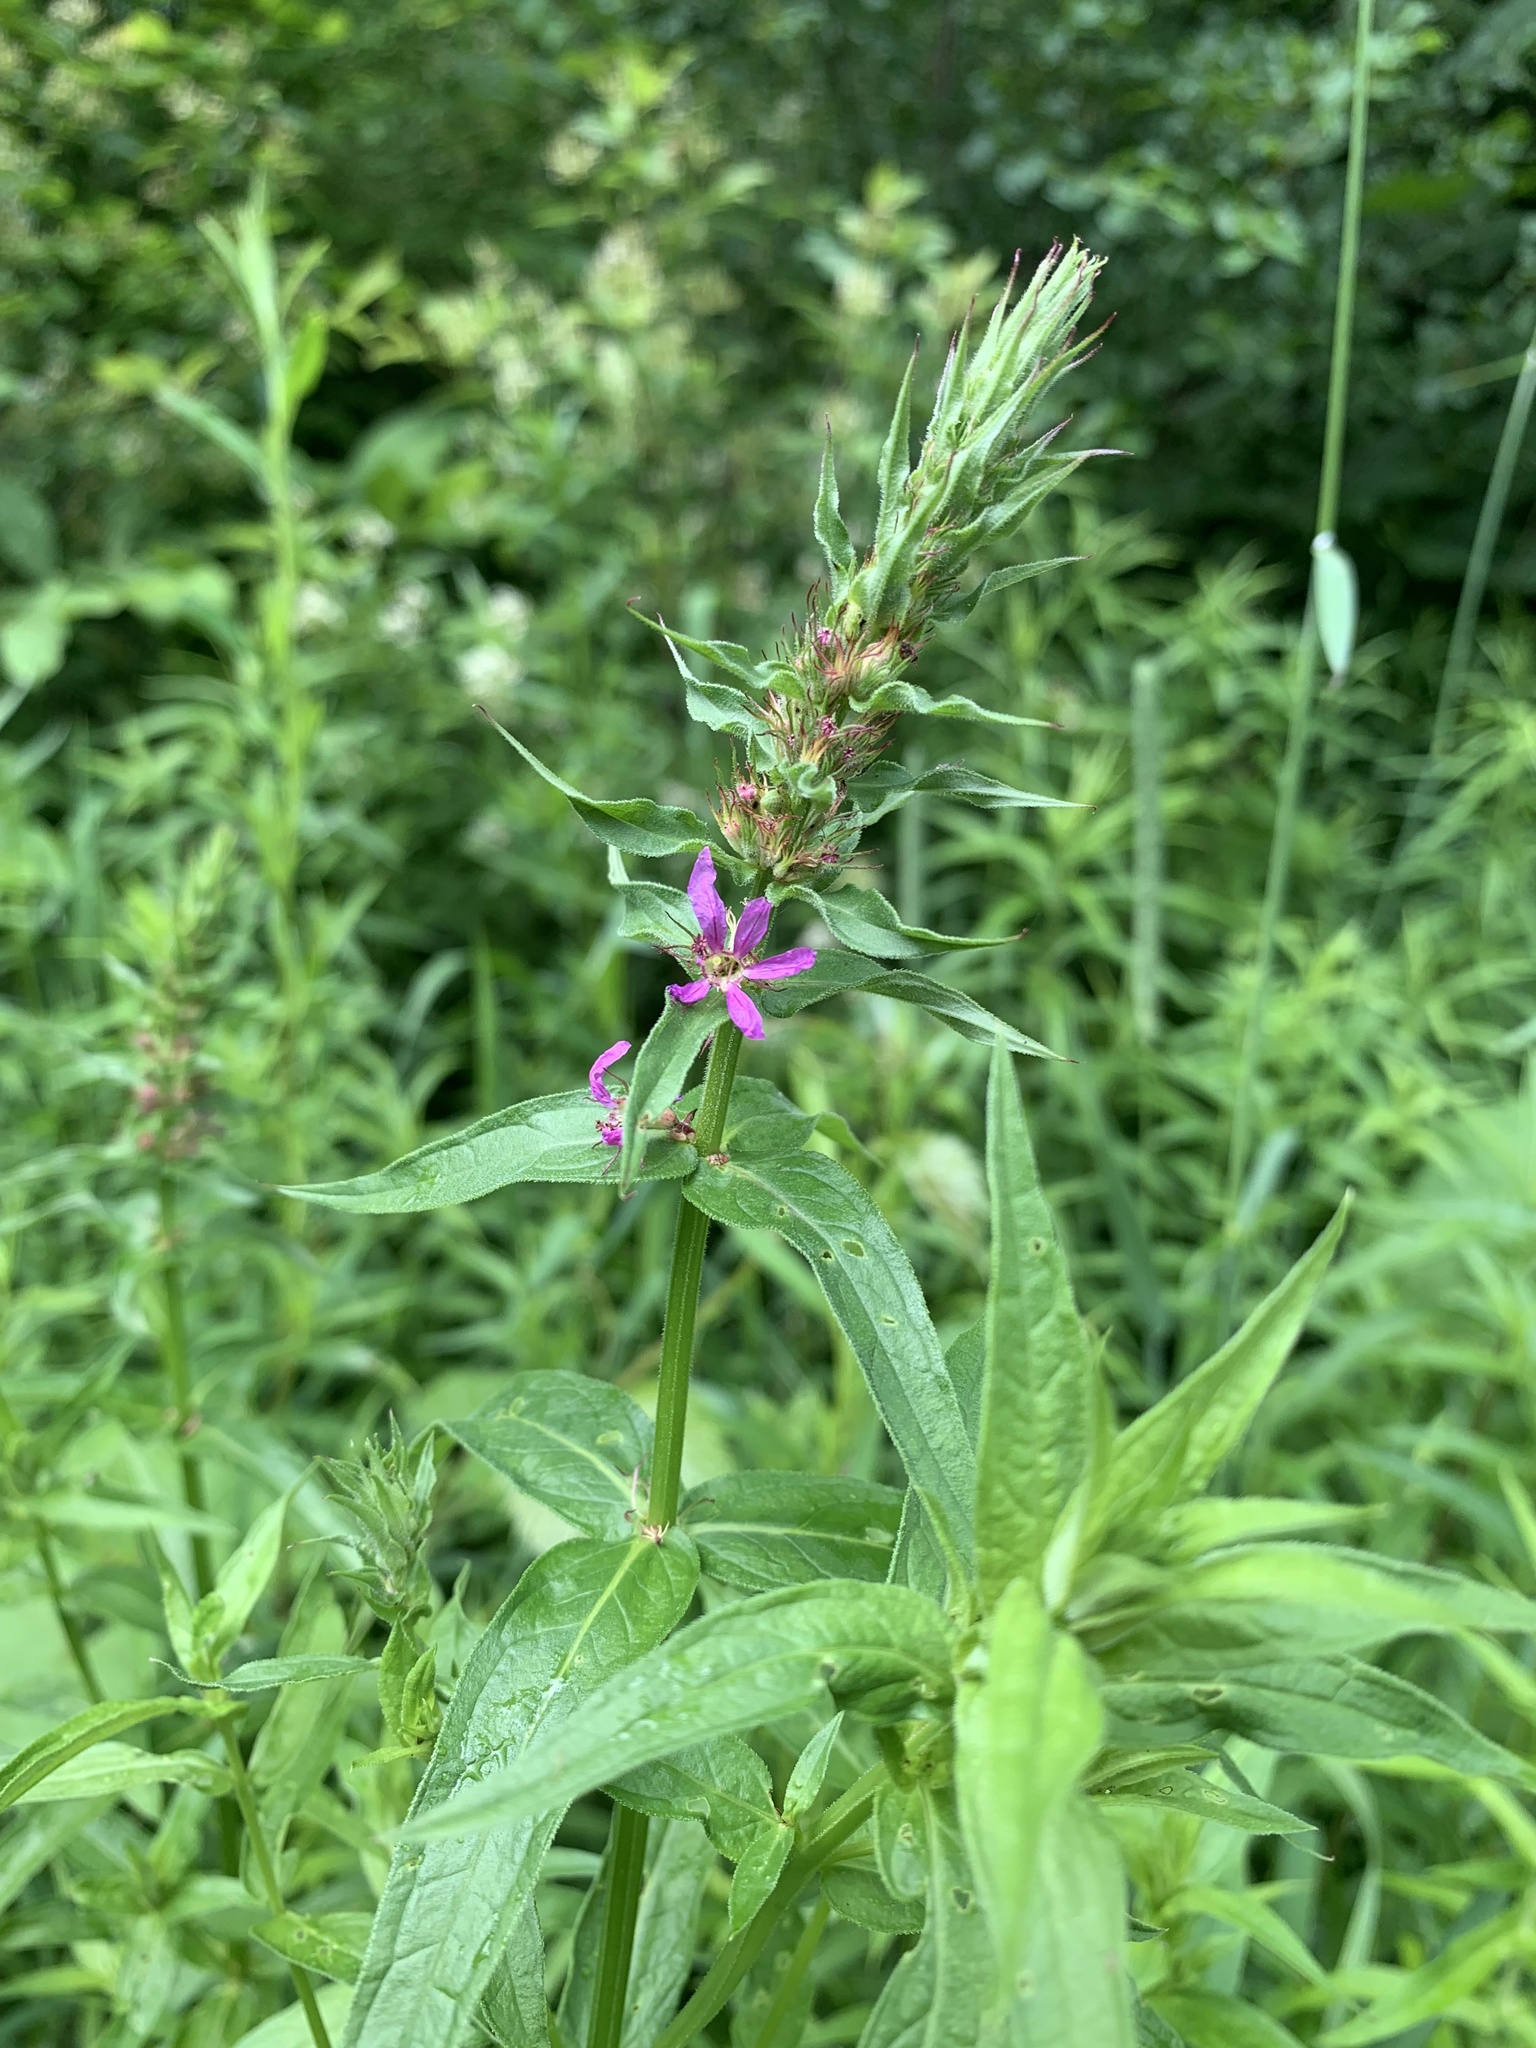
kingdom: Plantae
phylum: Tracheophyta
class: Magnoliopsida
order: Myrtales
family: Lythraceae
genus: Lythrum
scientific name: Lythrum salicaria
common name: Purple loosestrife
